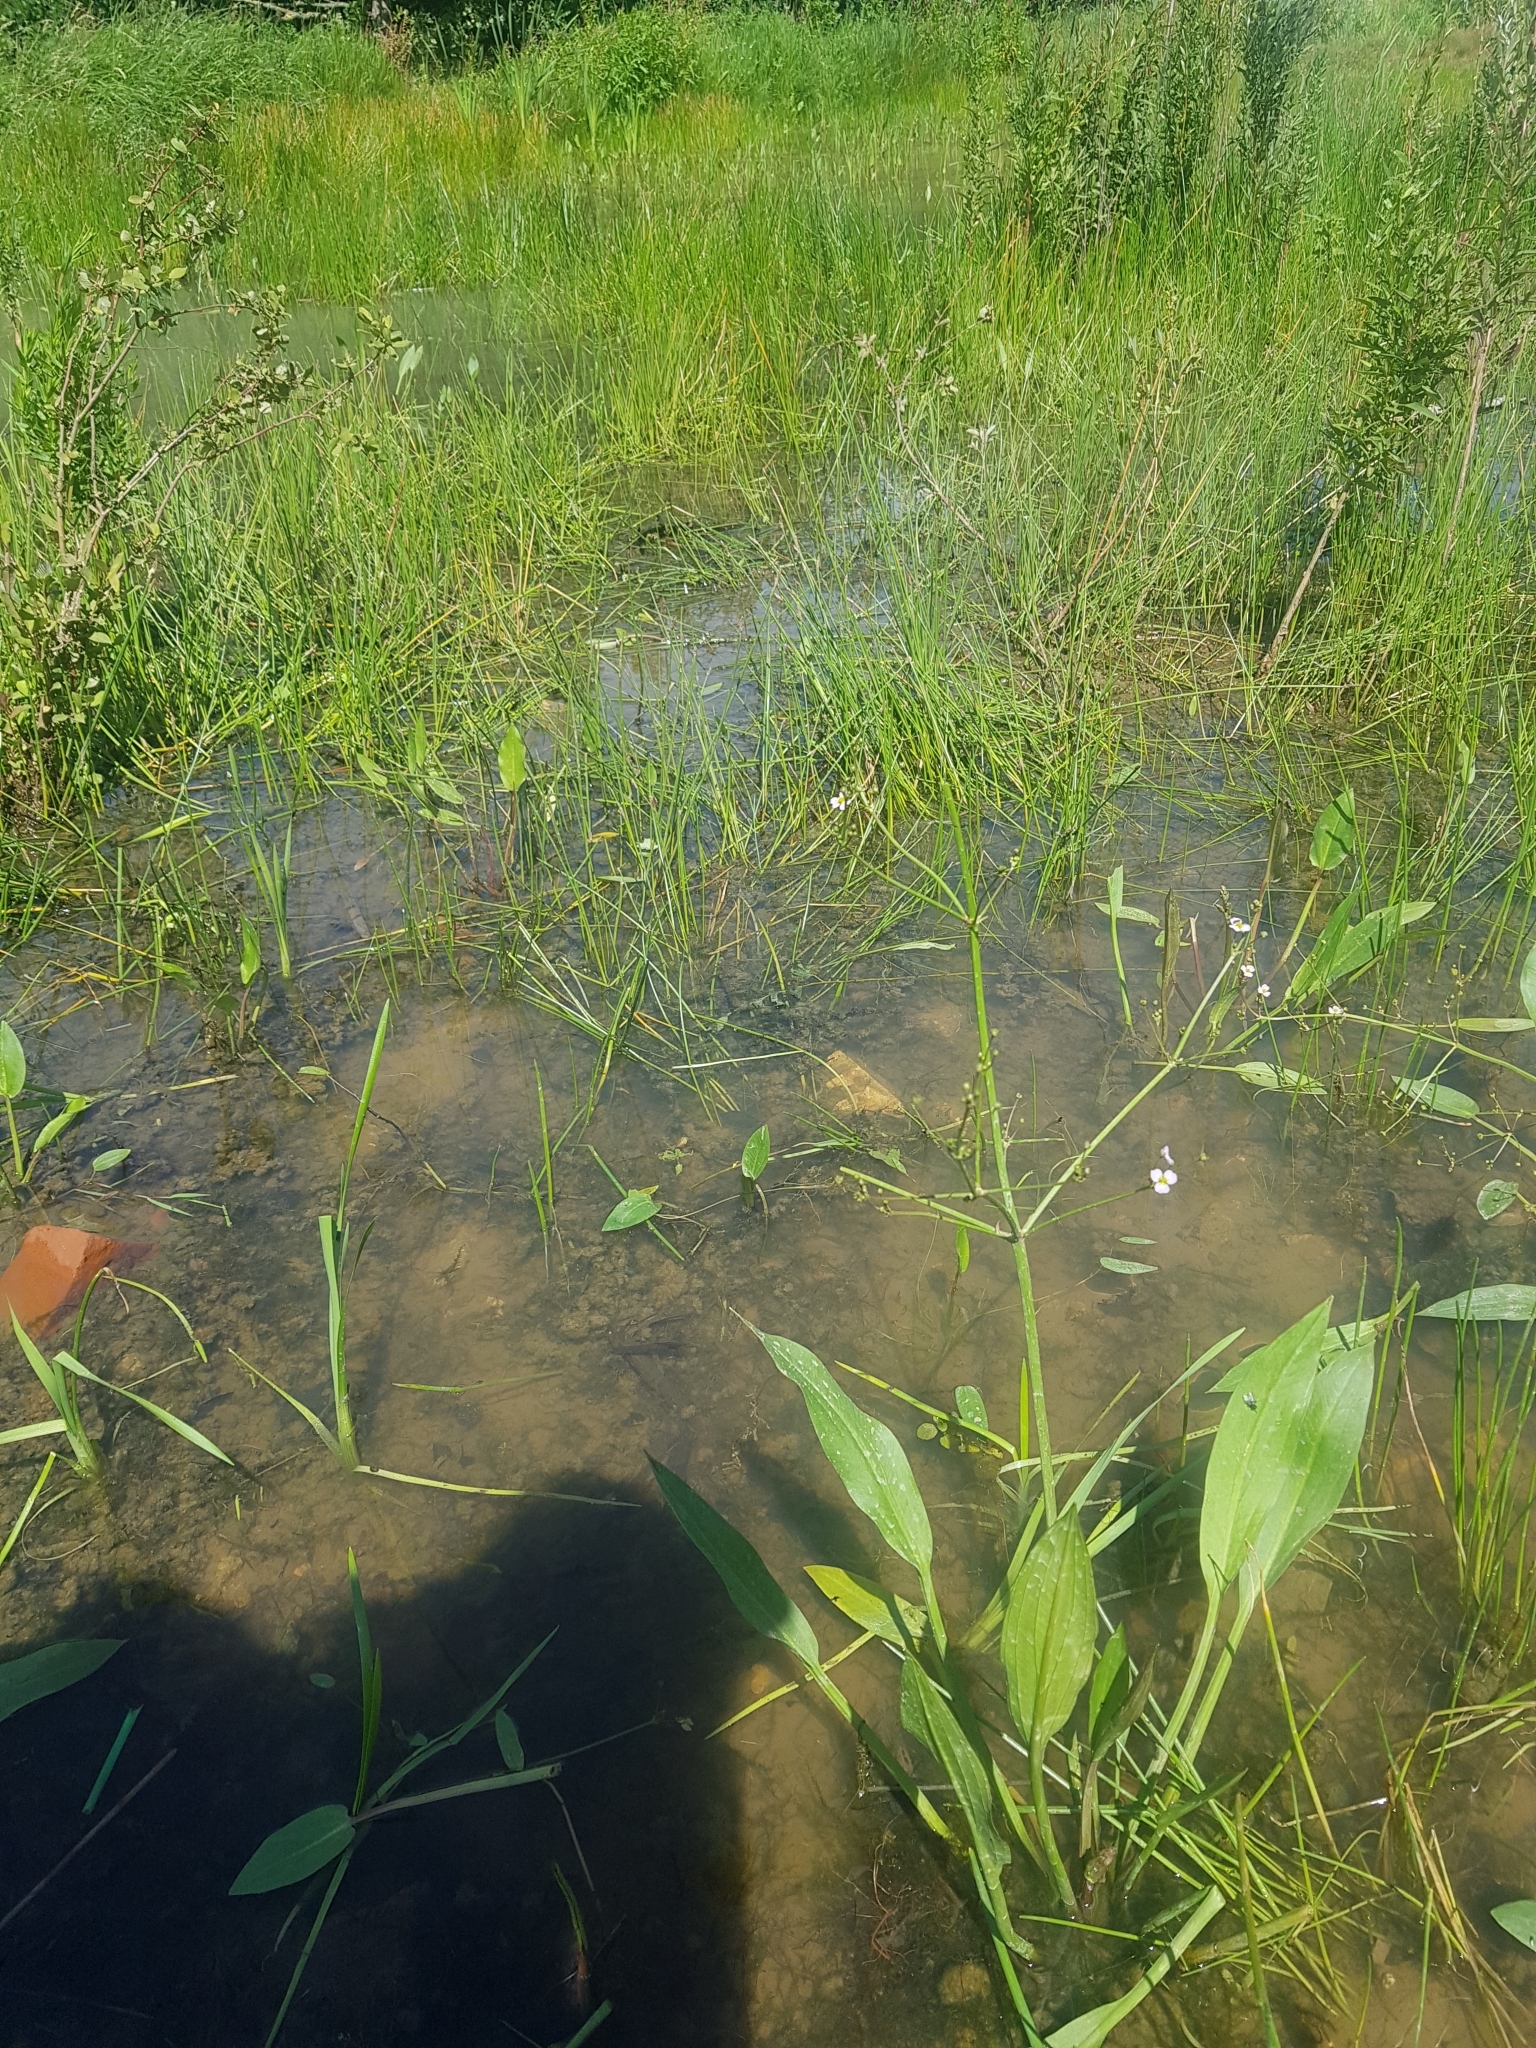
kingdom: Plantae
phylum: Tracheophyta
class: Liliopsida
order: Alismatales
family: Alismataceae
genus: Alisma
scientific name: Alisma plantago-aquatica
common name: Water-plantain
